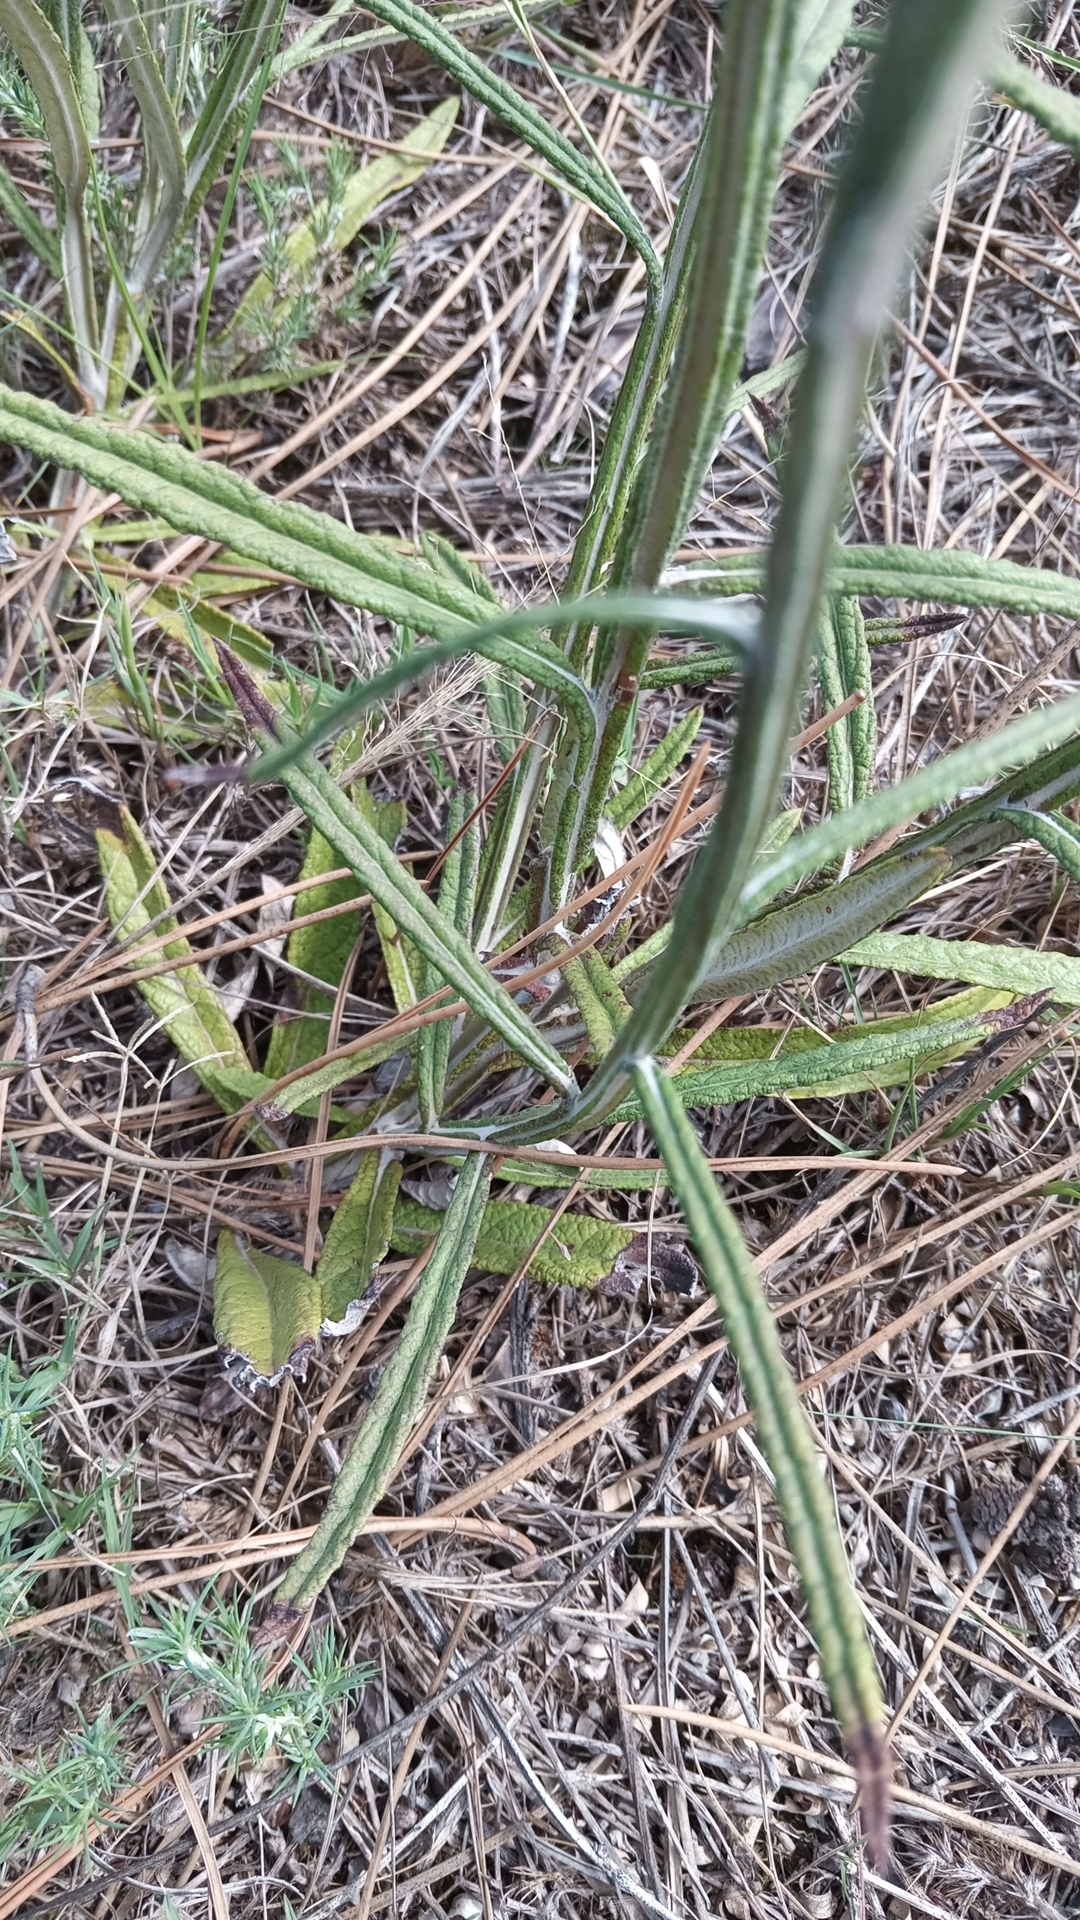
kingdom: Plantae
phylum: Tracheophyta
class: Magnoliopsida
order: Asterales
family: Asteraceae
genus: Pterocaulon
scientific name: Pterocaulon lorentzii
